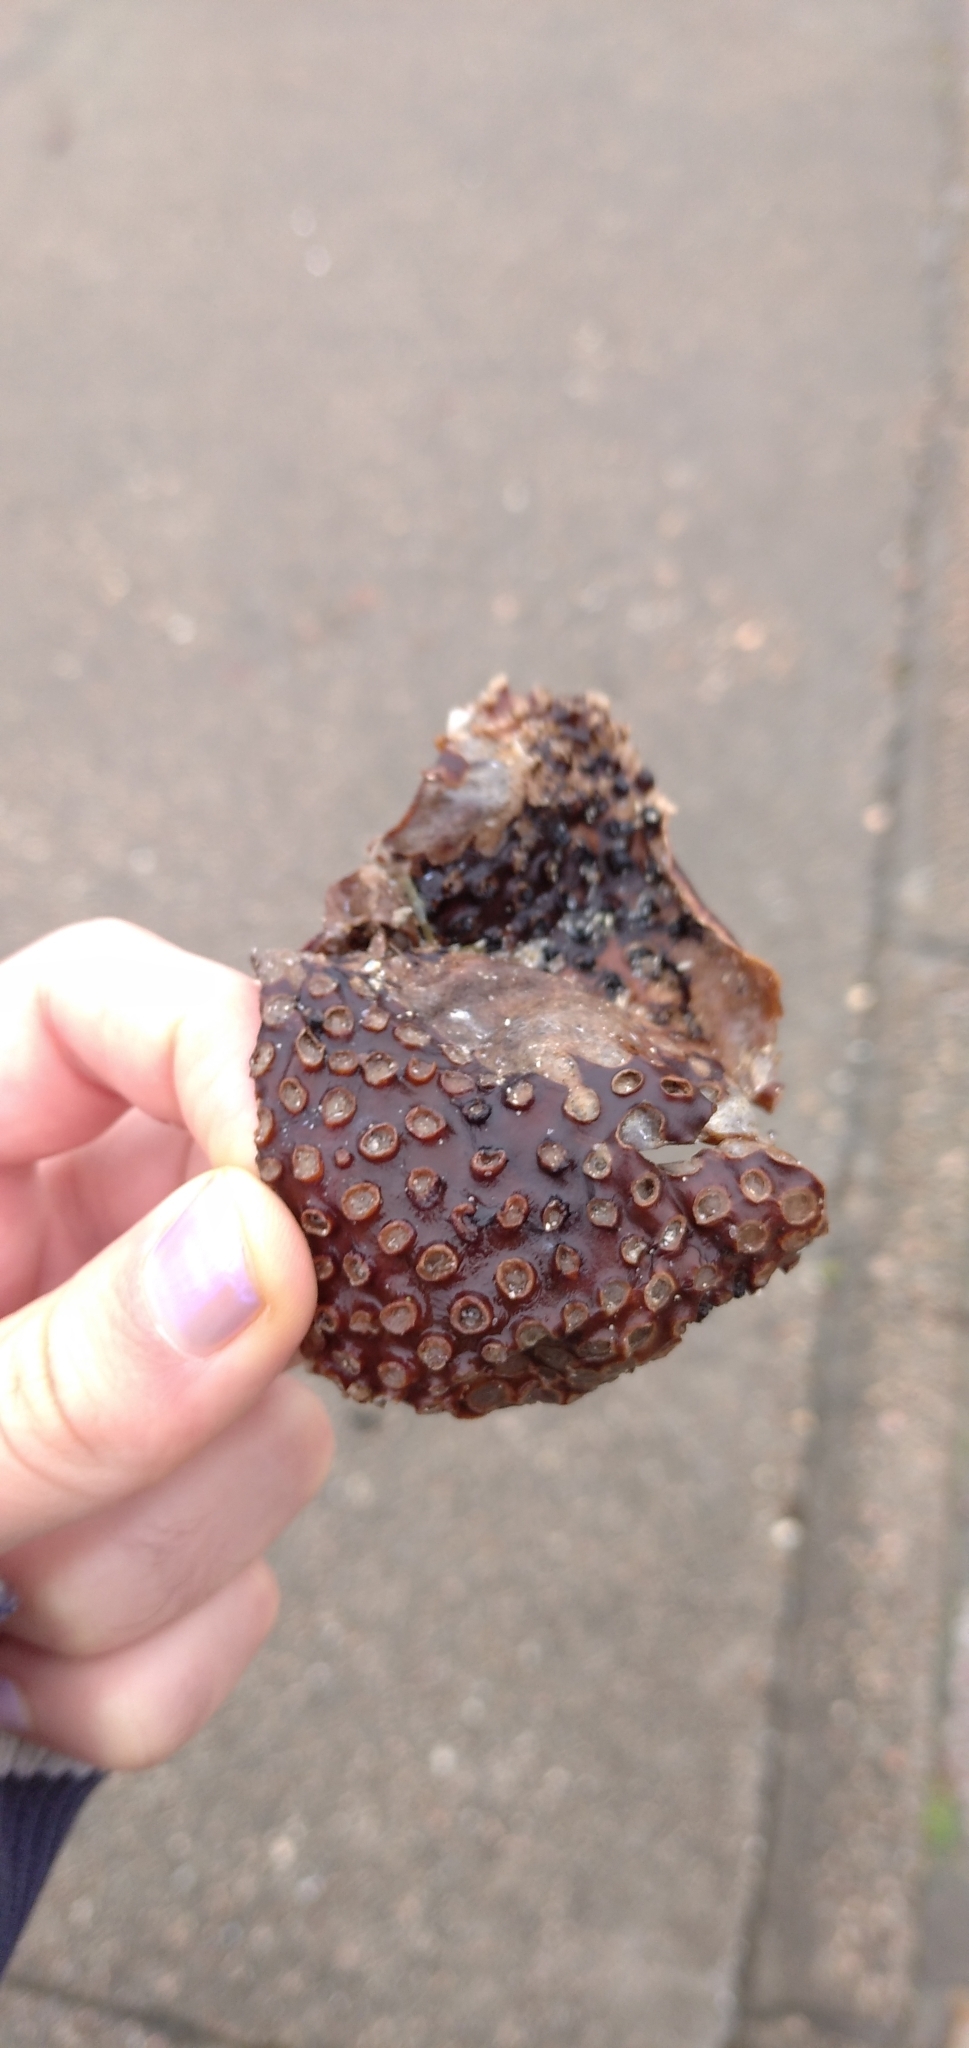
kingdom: Chromista
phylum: Ochrophyta
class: Phaeophyceae
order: Tilopteridales
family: Phyllariaceae
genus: Saccorhiza
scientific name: Saccorhiza polyschides
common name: Furbelows
